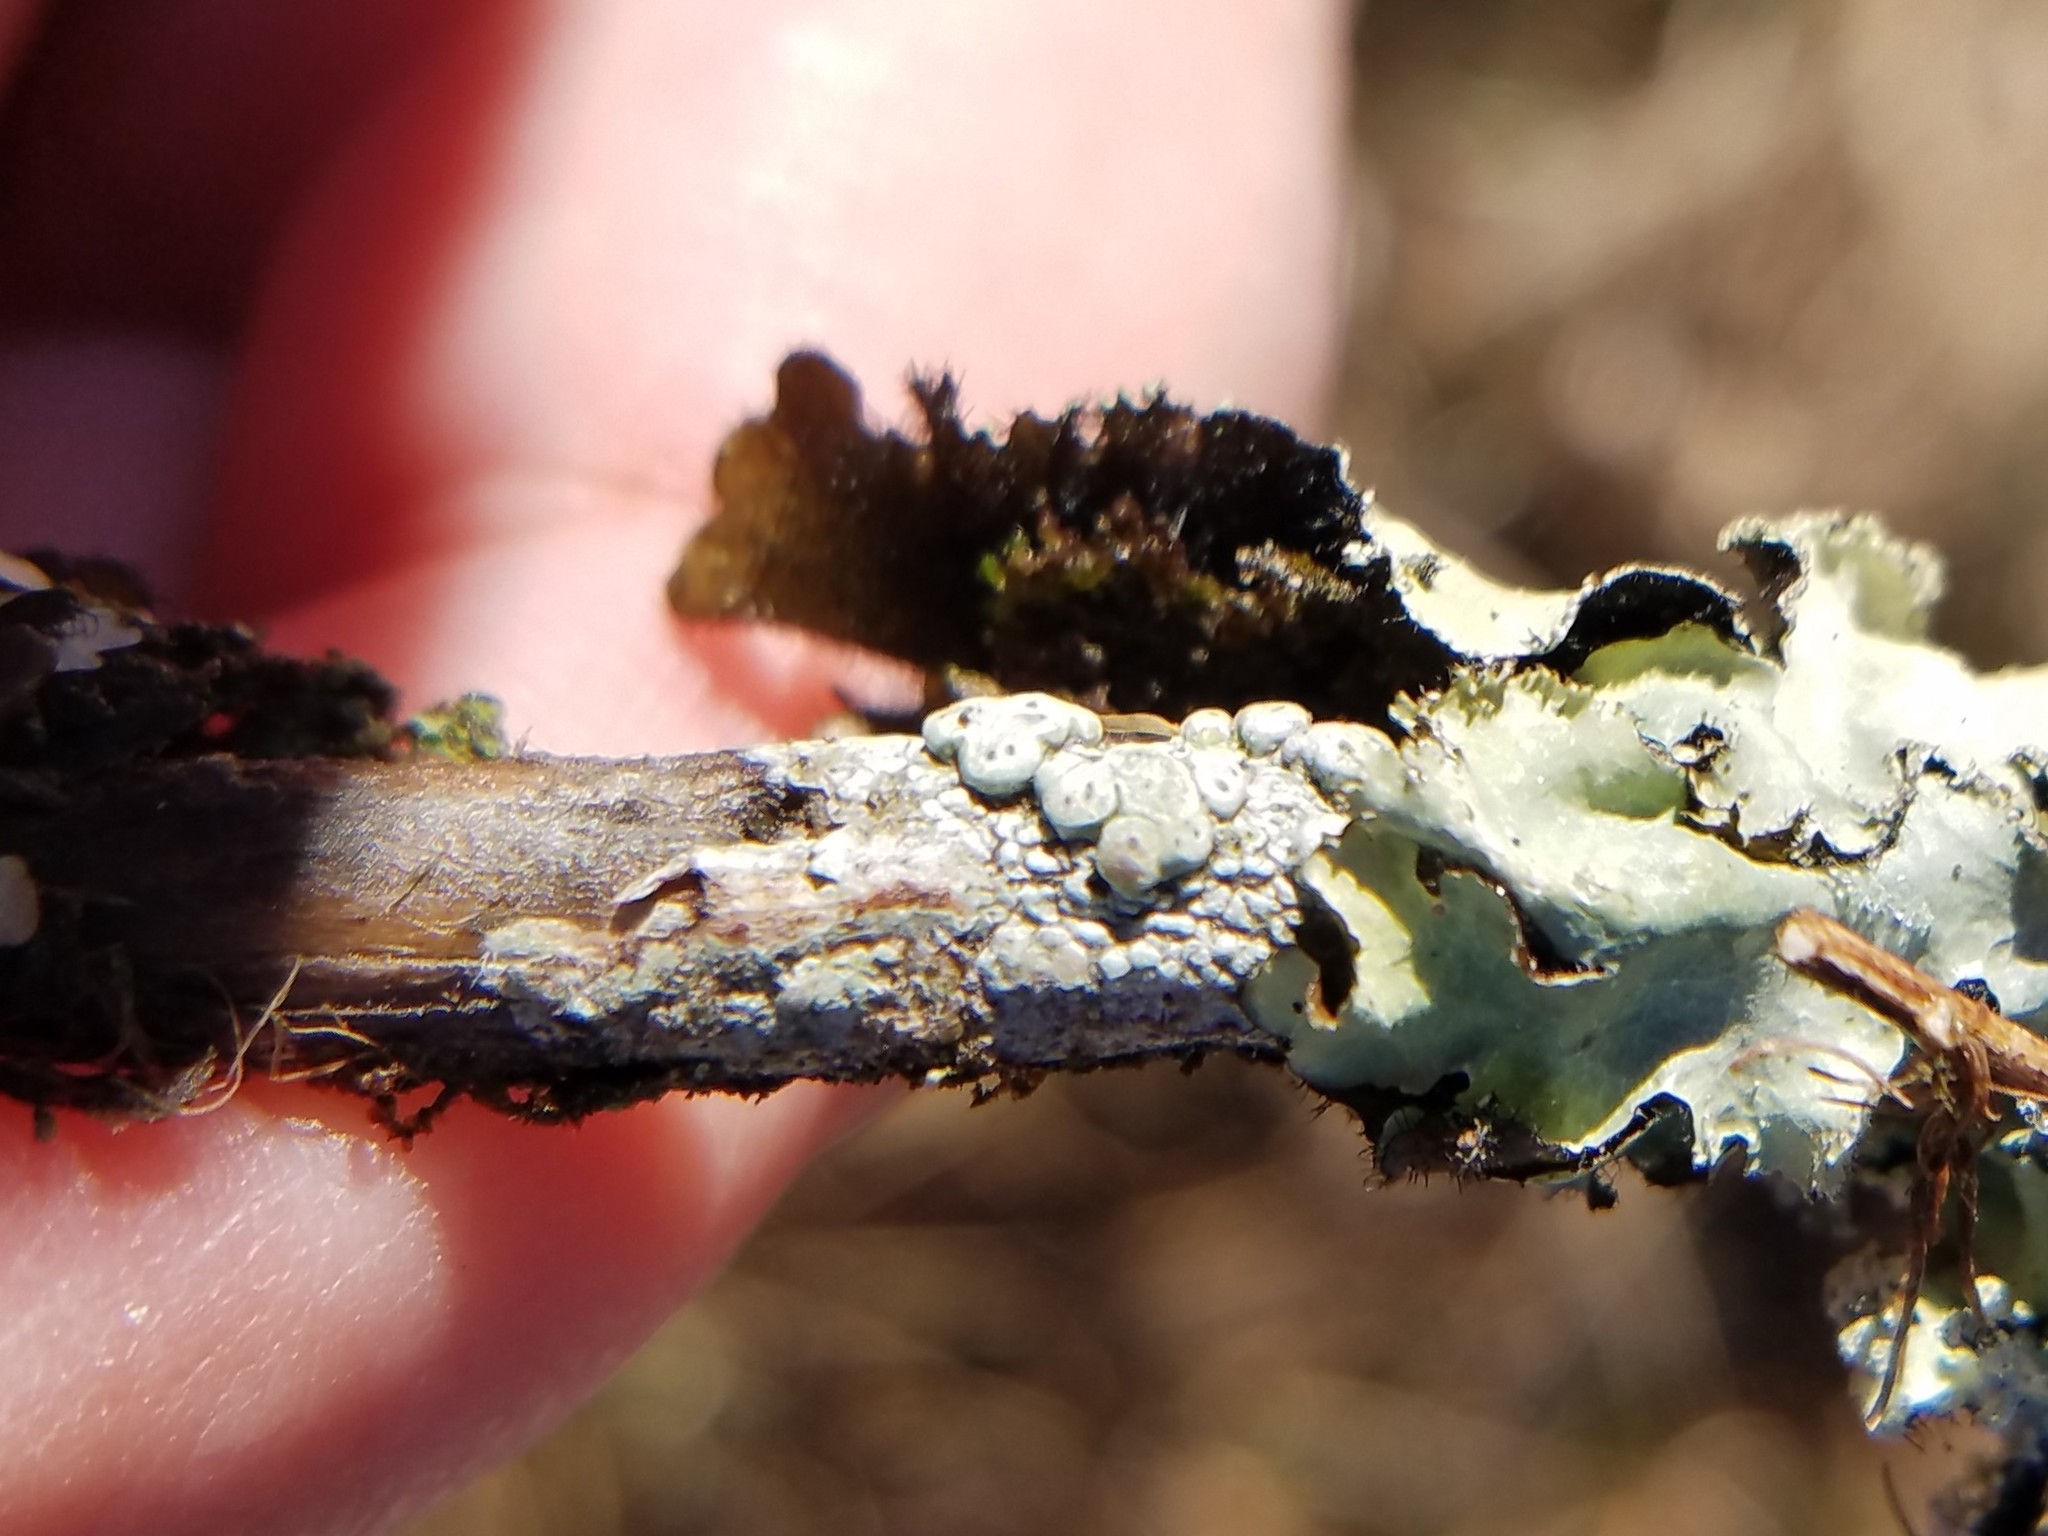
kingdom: Fungi
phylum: Ascomycota
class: Lecanoromycetes
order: Pertusariales
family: Pertusariaceae
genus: Pertusaria
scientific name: Pertusaria
